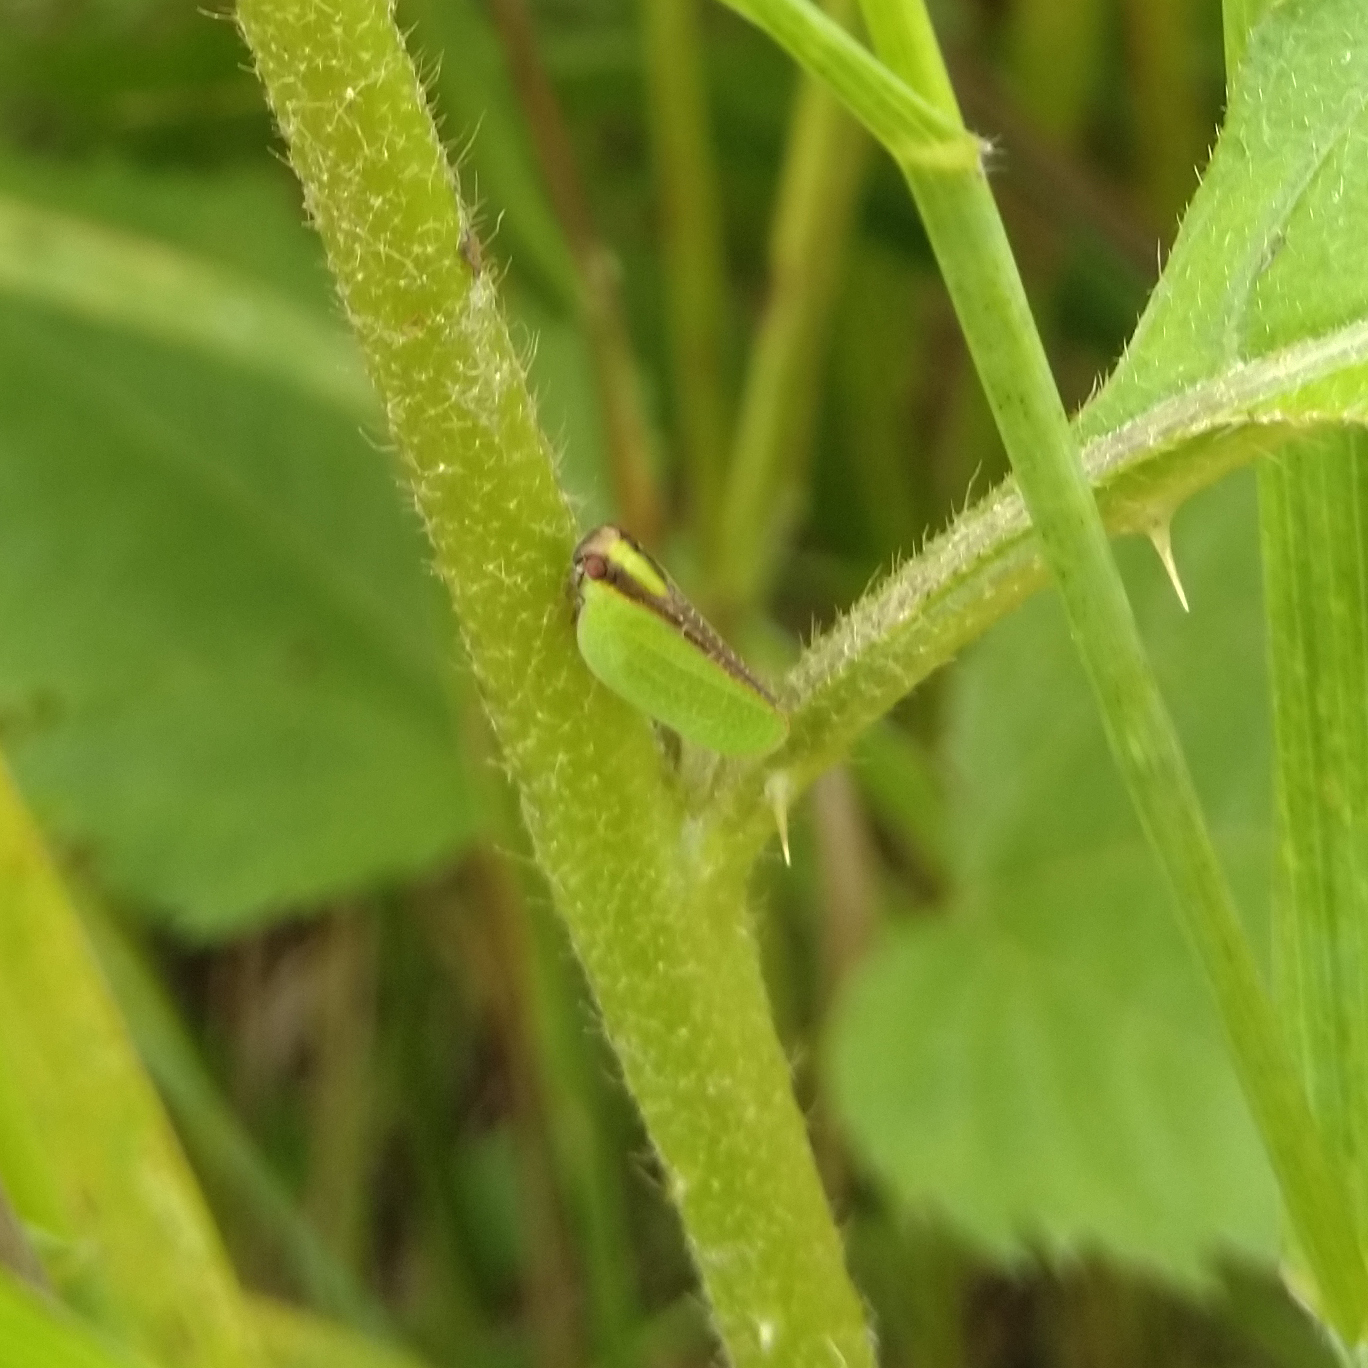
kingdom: Animalia
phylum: Arthropoda
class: Insecta
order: Hemiptera
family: Acanaloniidae
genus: Acanalonia
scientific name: Acanalonia bivittata
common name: Two-striped planthopper
